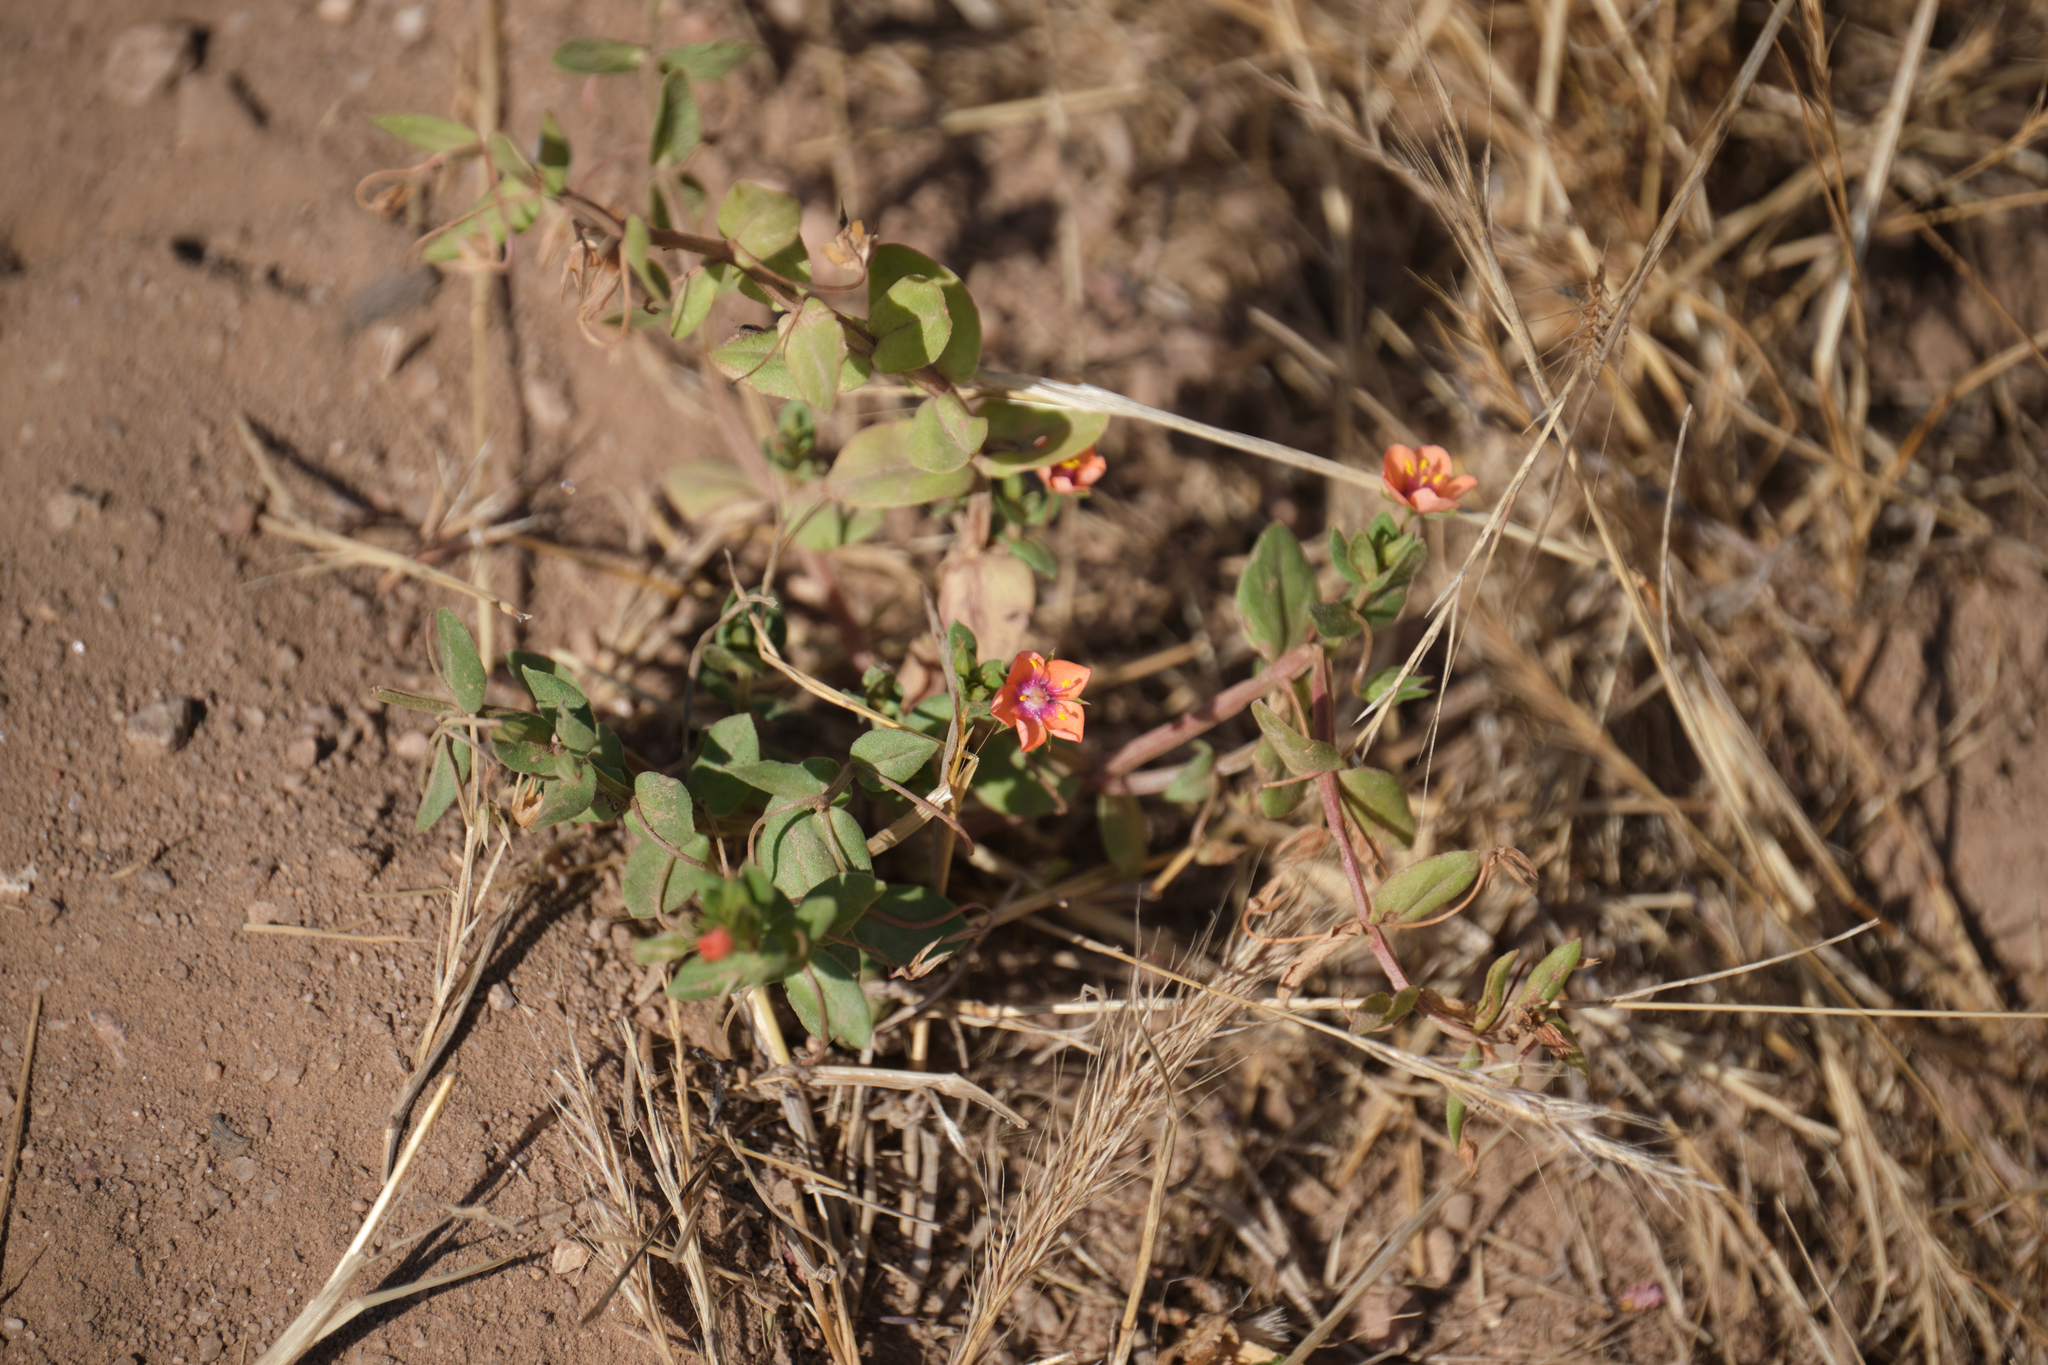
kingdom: Plantae
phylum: Tracheophyta
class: Magnoliopsida
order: Ericales
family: Primulaceae
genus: Lysimachia
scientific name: Lysimachia arvensis
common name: Scarlet pimpernel
